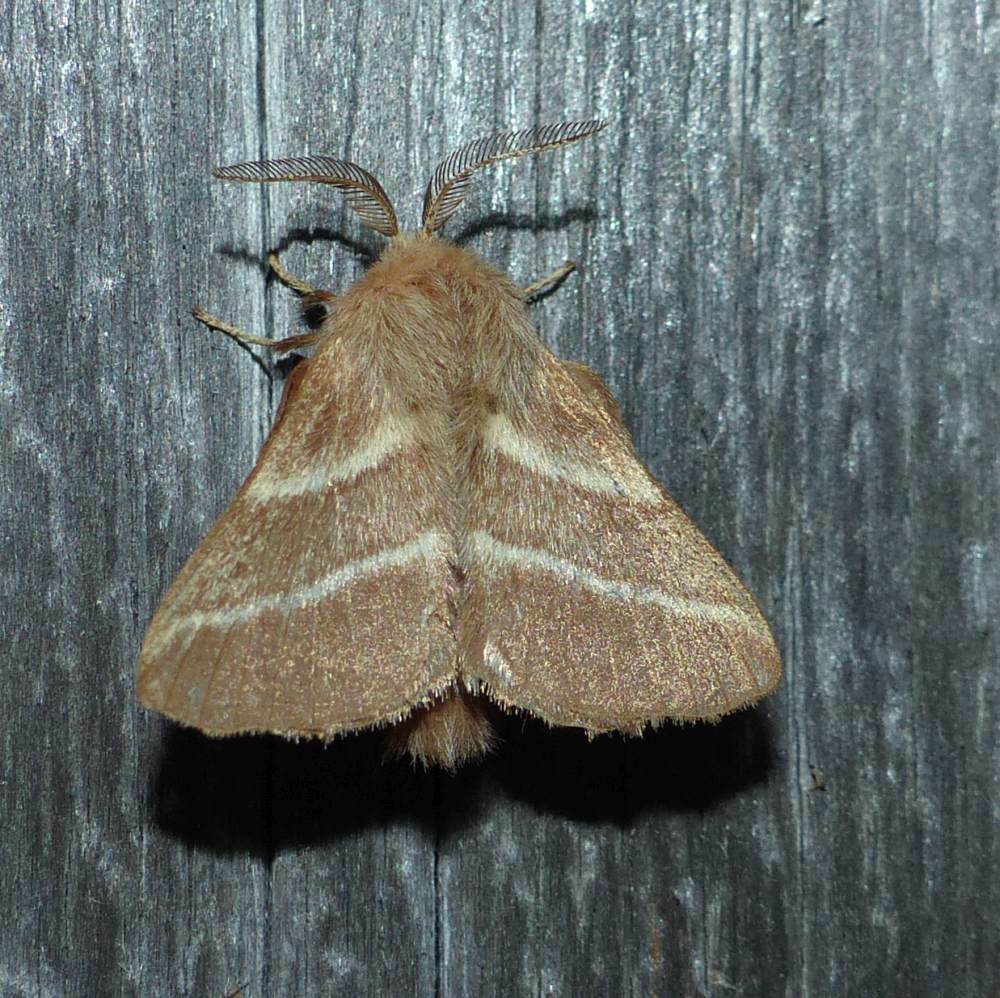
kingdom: Animalia
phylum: Arthropoda
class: Insecta
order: Lepidoptera
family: Lasiocampidae
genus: Malacosoma
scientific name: Malacosoma americana
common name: Eastern tent caterpillar moth
